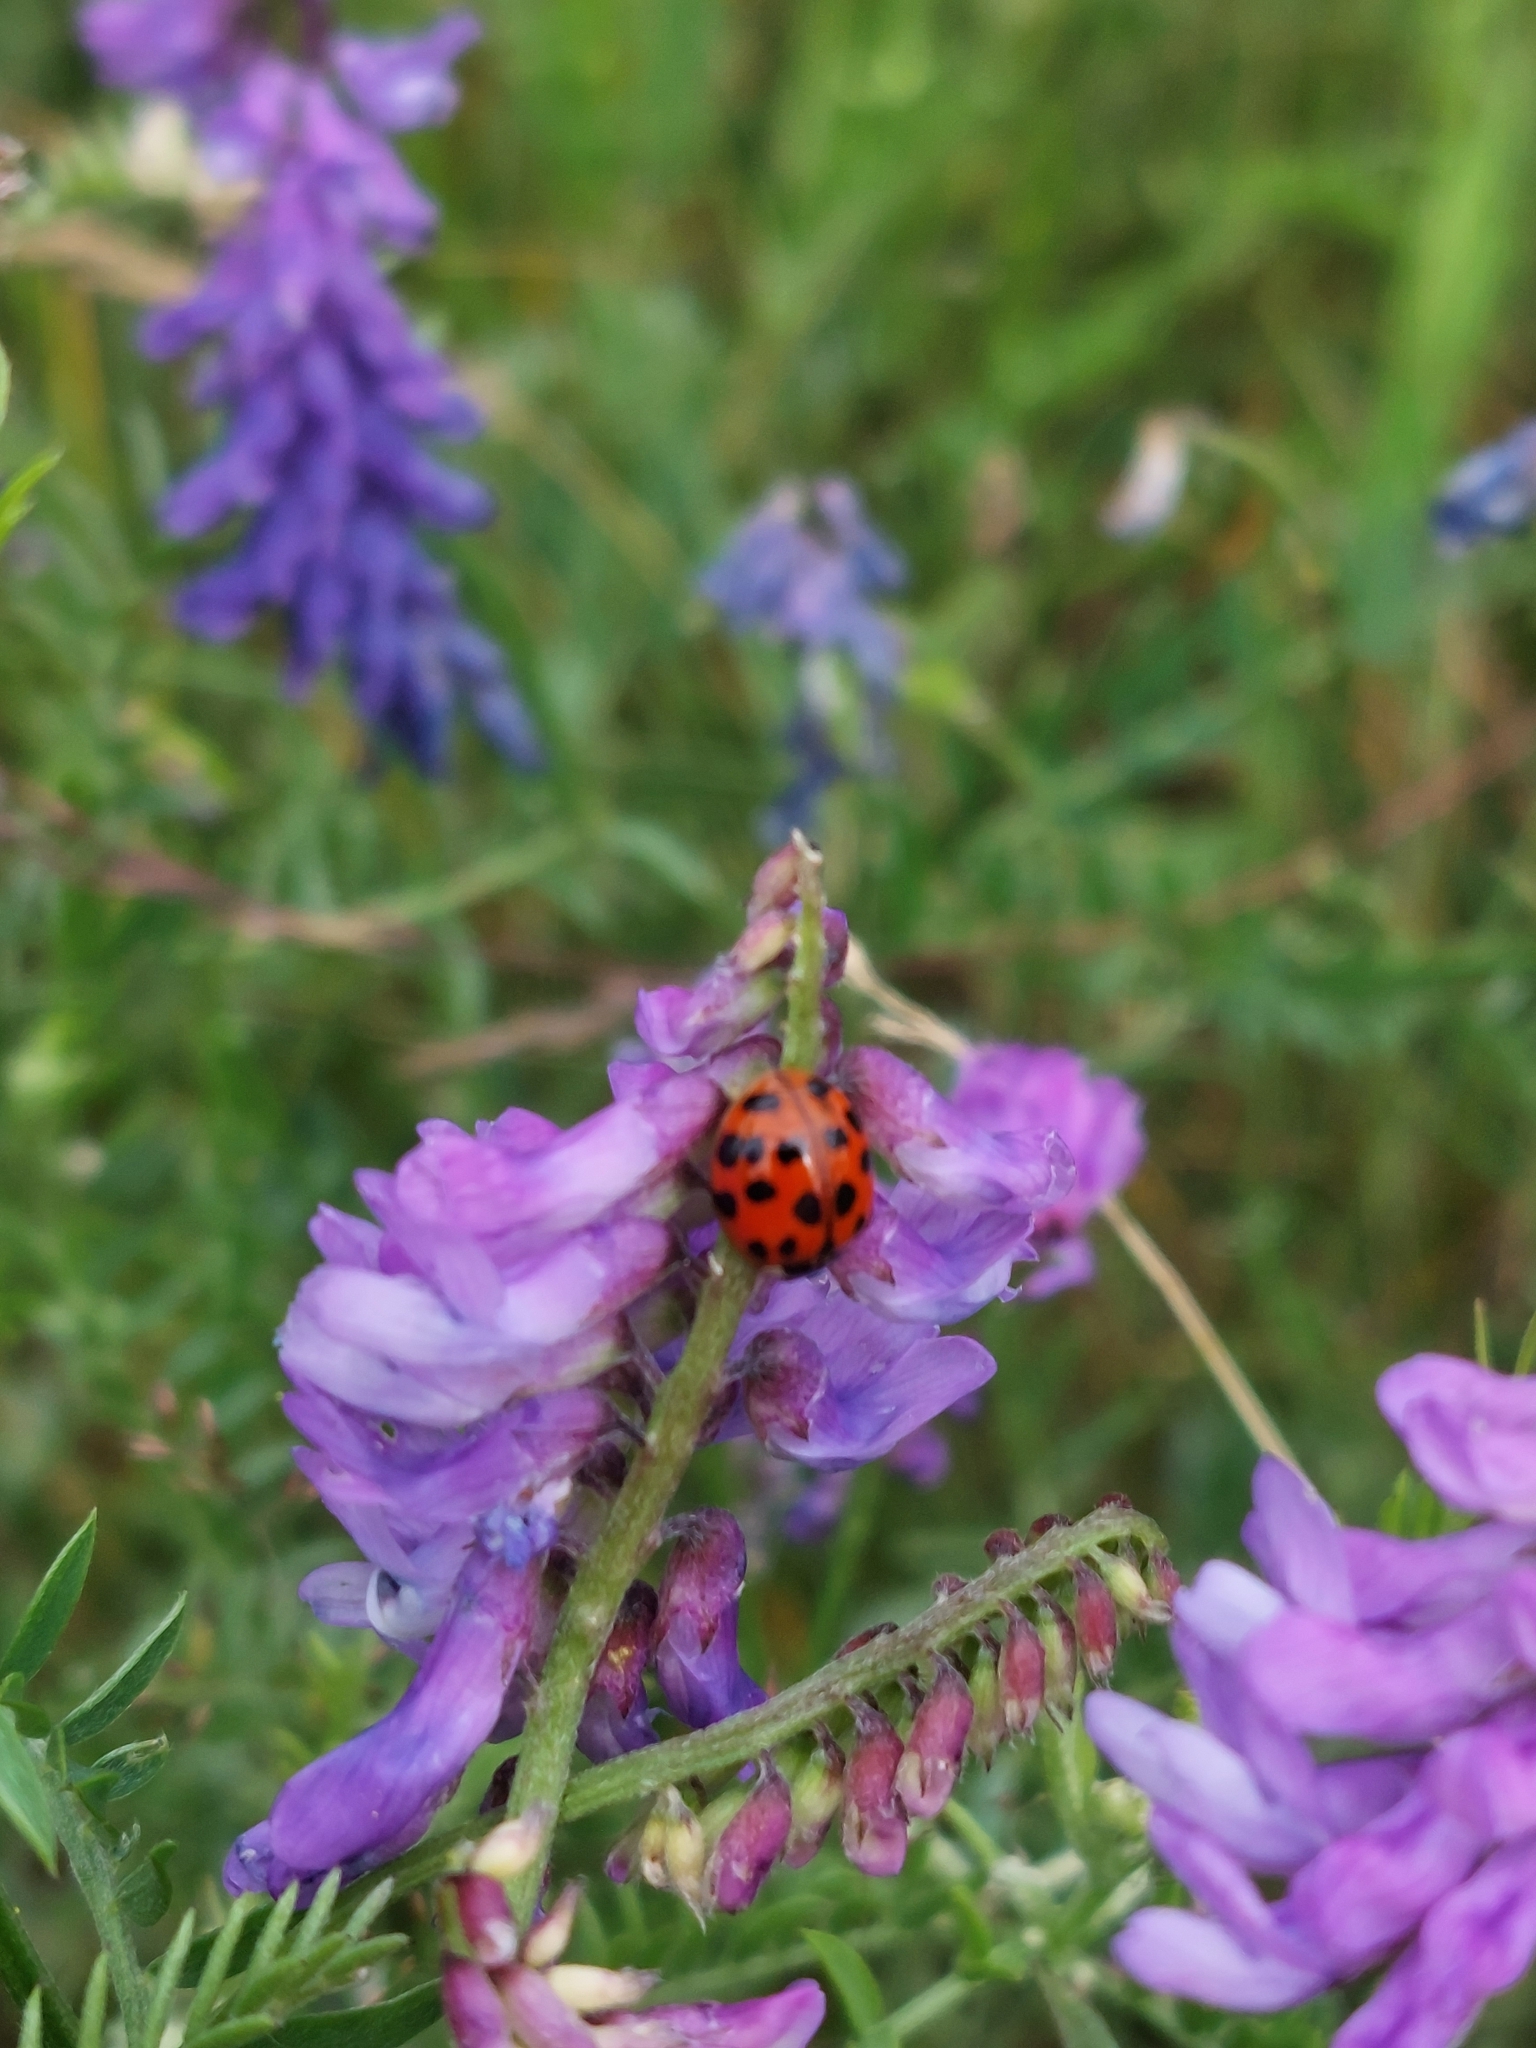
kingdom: Animalia
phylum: Arthropoda
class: Insecta
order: Coleoptera
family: Coccinellidae
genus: Harmonia
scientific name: Harmonia axyridis
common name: Harlequin ladybird
